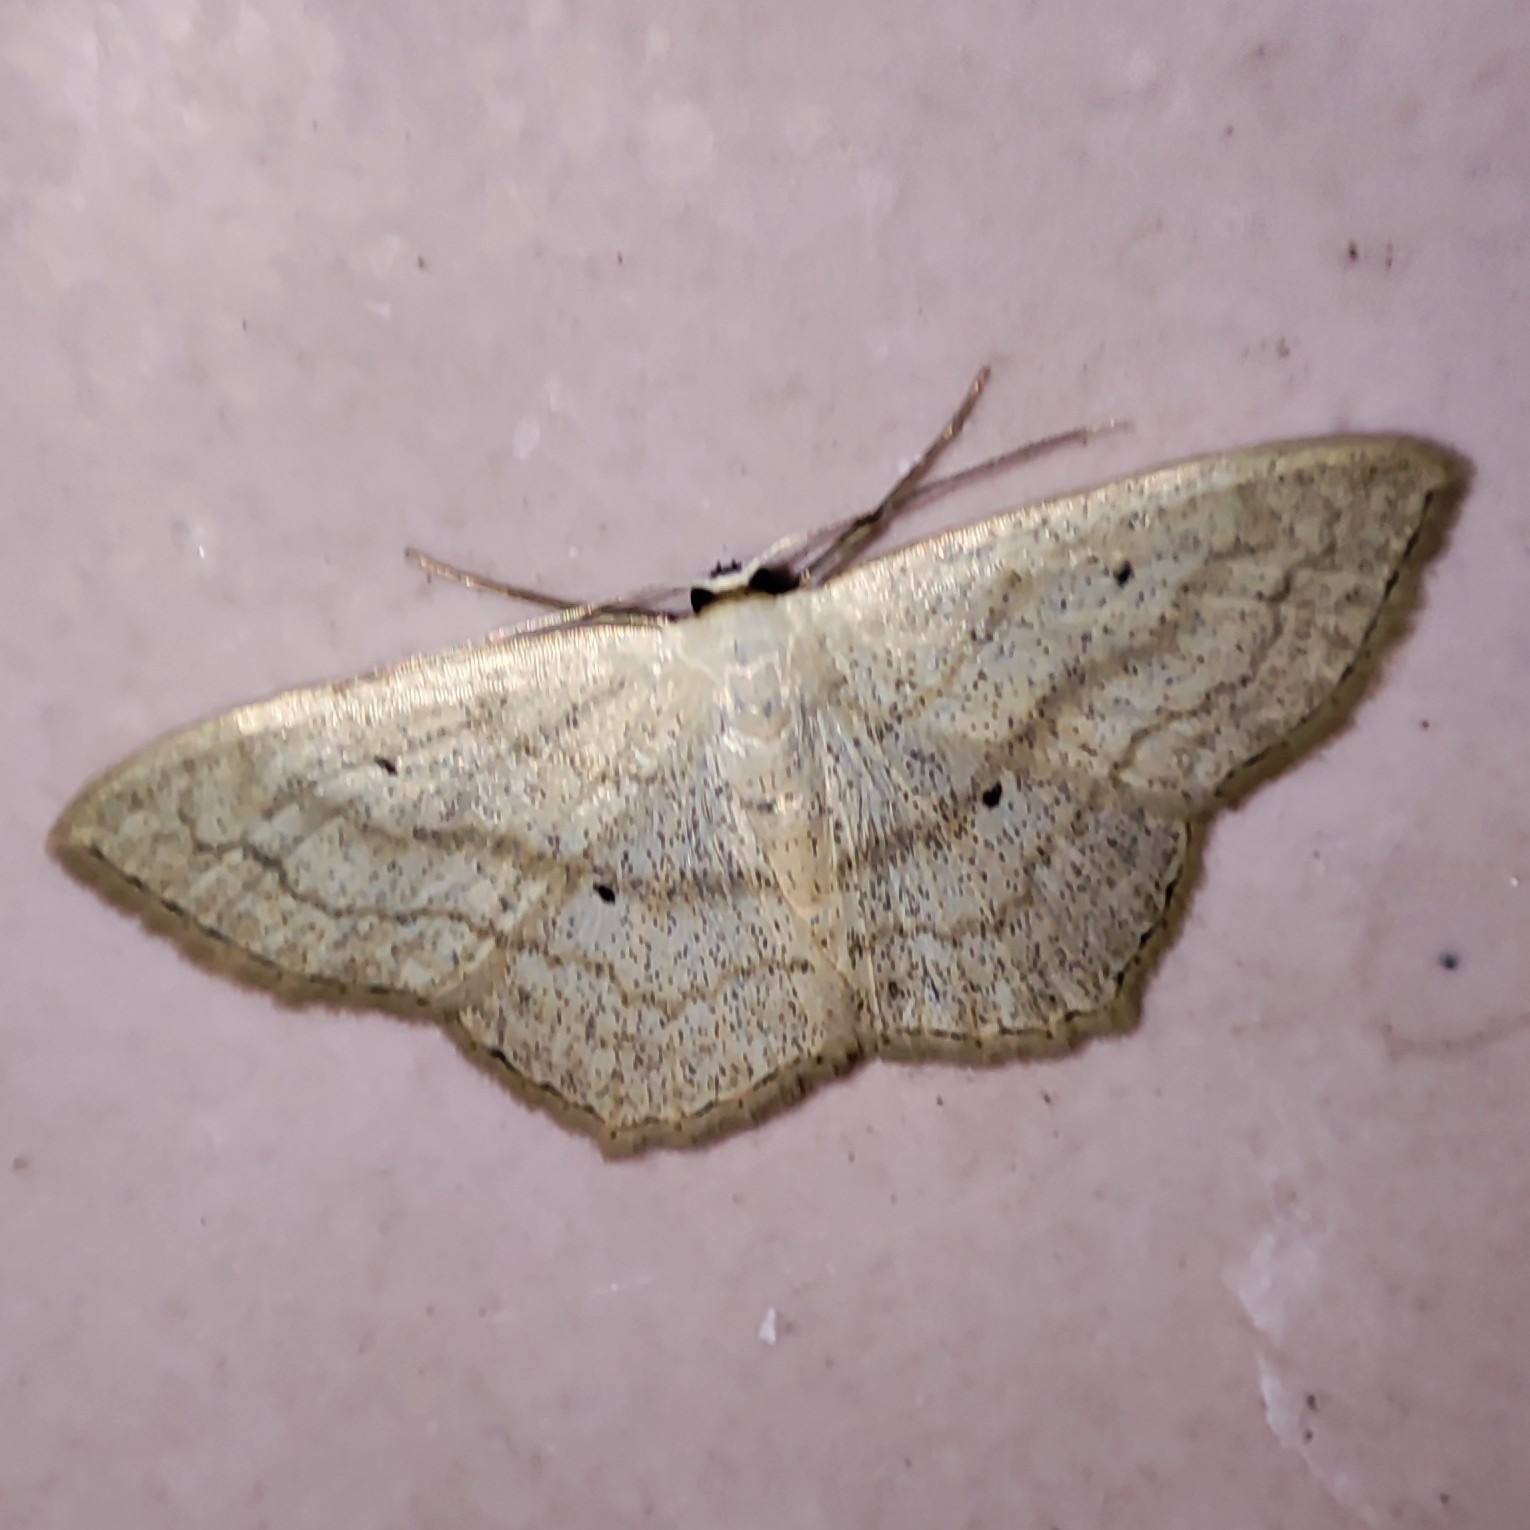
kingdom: Animalia
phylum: Arthropoda
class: Insecta
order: Lepidoptera
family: Geometridae
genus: Scopula
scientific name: Scopula nigropunctata
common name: Sub-angled wave
